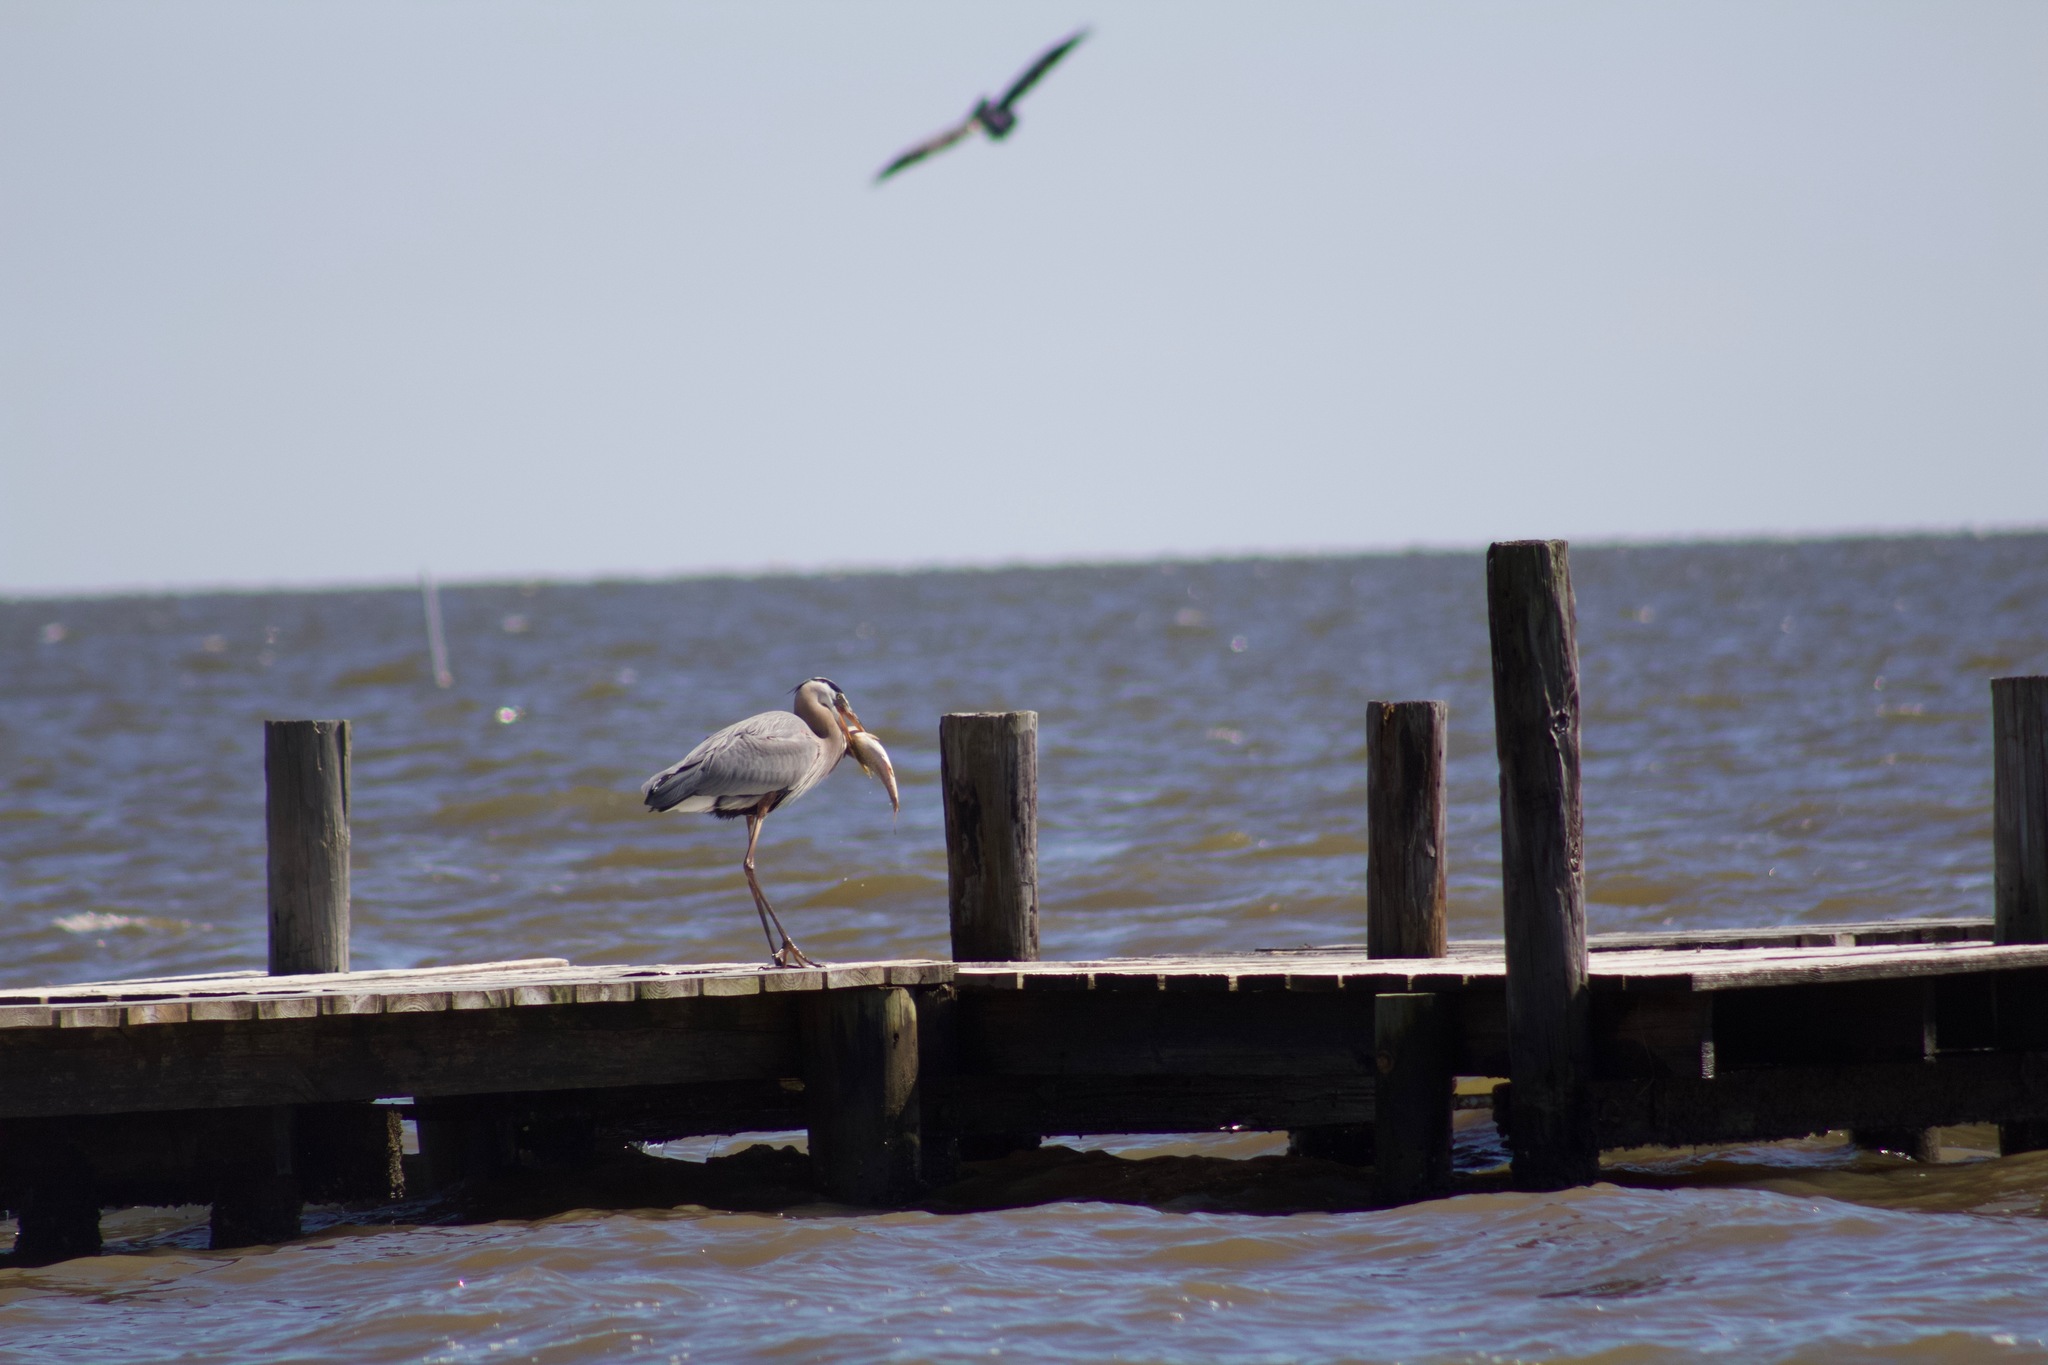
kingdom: Animalia
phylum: Chordata
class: Aves
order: Pelecaniformes
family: Ardeidae
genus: Ardea
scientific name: Ardea herodias
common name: Great blue heron
